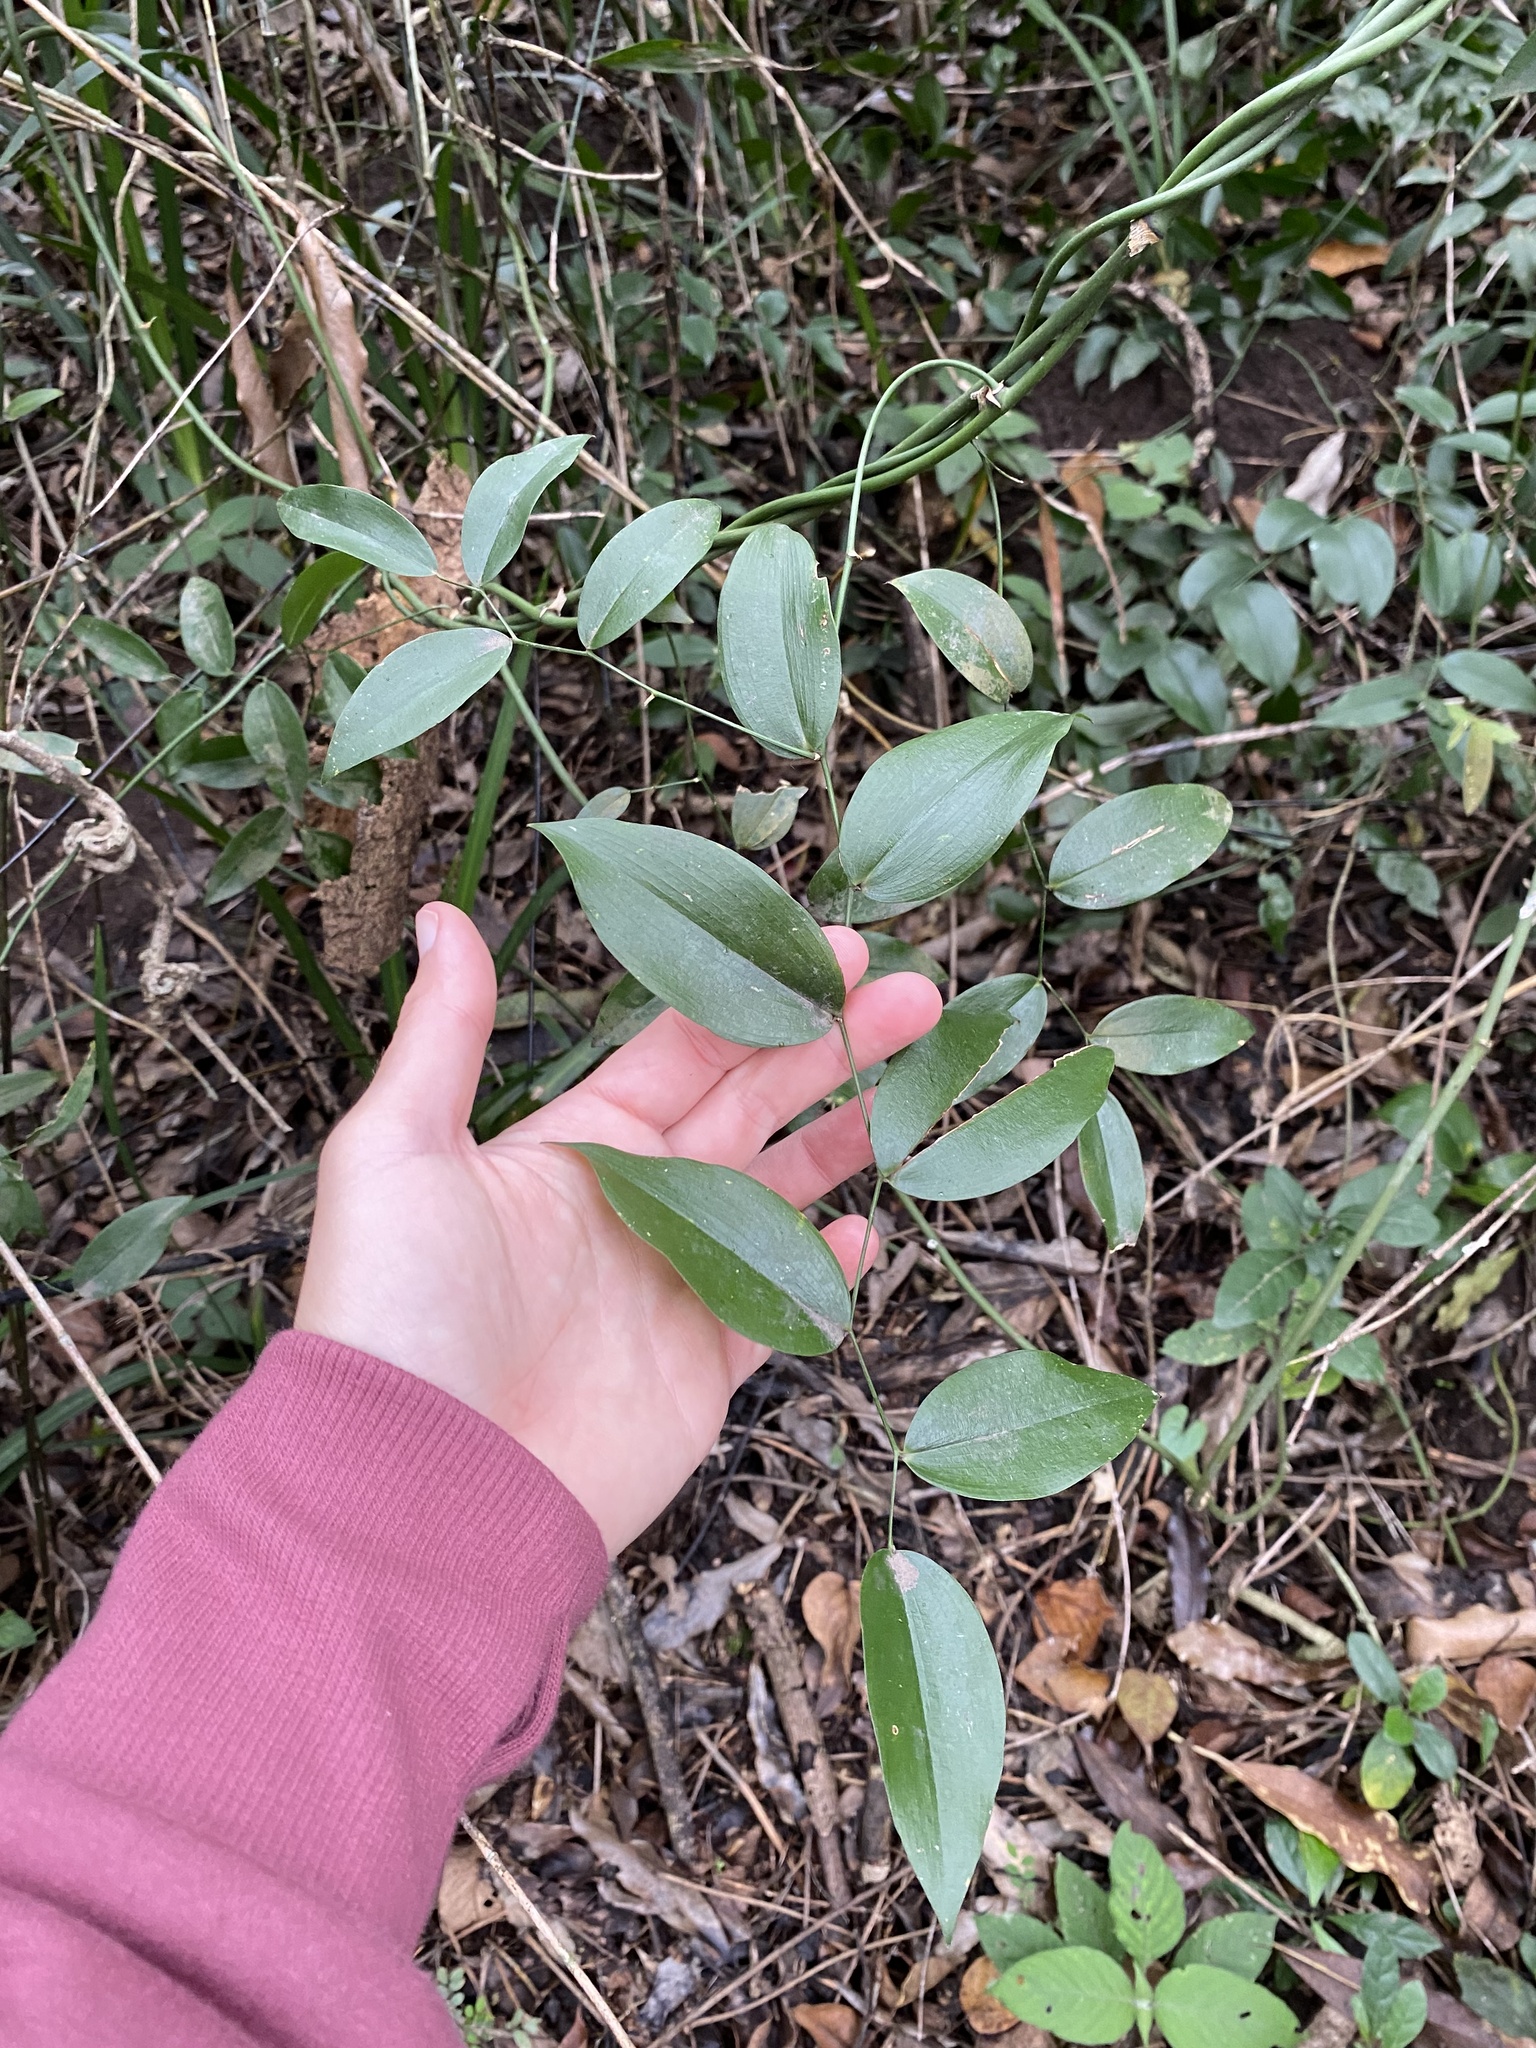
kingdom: Plantae
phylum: Tracheophyta
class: Liliopsida
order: Asparagales
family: Asparagaceae
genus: Behnia
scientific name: Behnia reticulata
